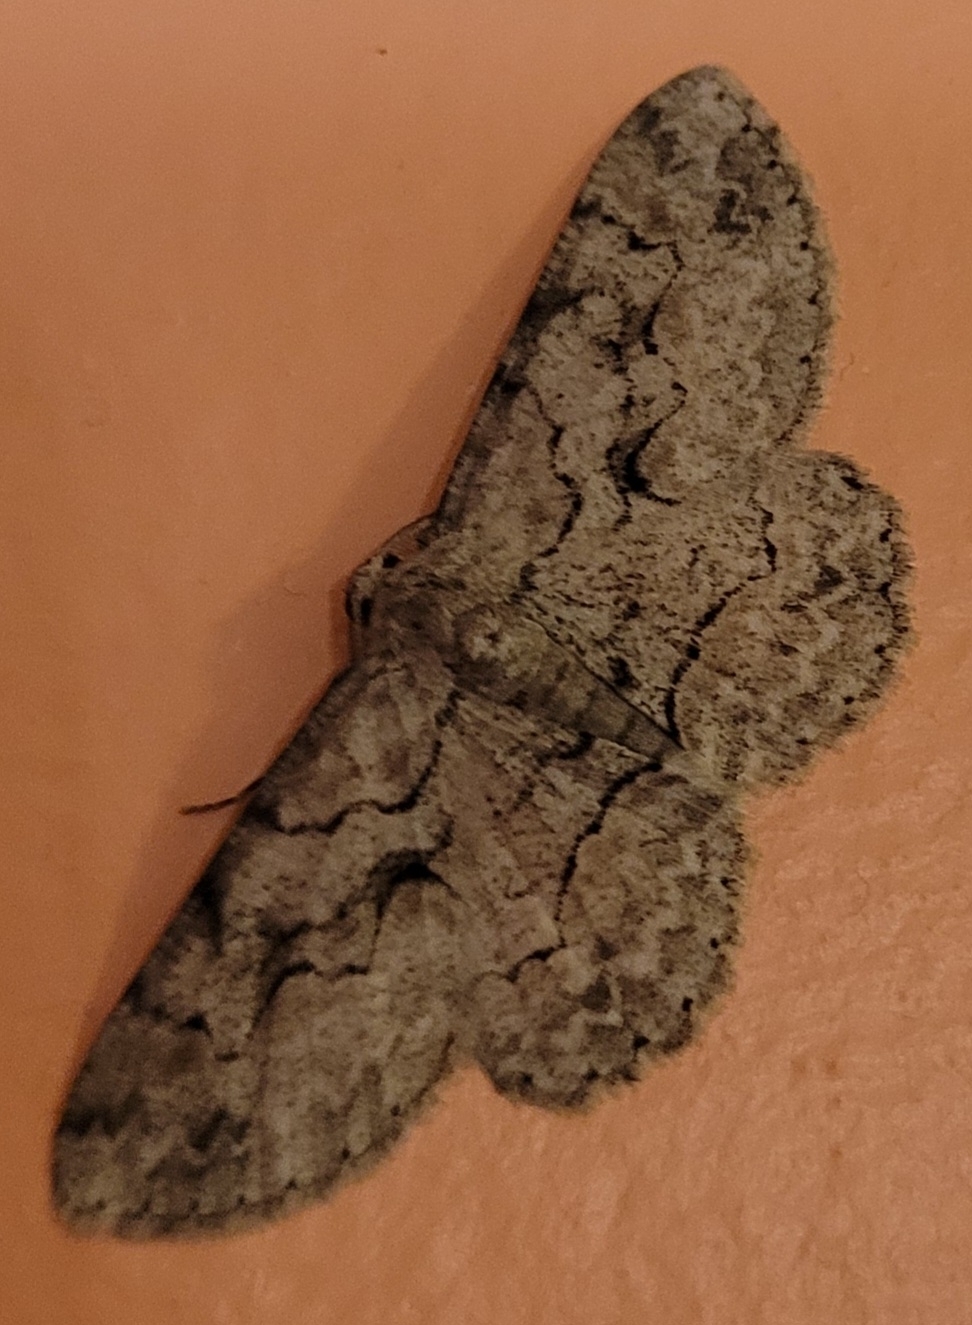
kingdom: Animalia
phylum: Arthropoda
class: Insecta
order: Lepidoptera
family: Geometridae
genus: Iridopsis
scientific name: Iridopsis defectaria
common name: Brown-shaded gray
